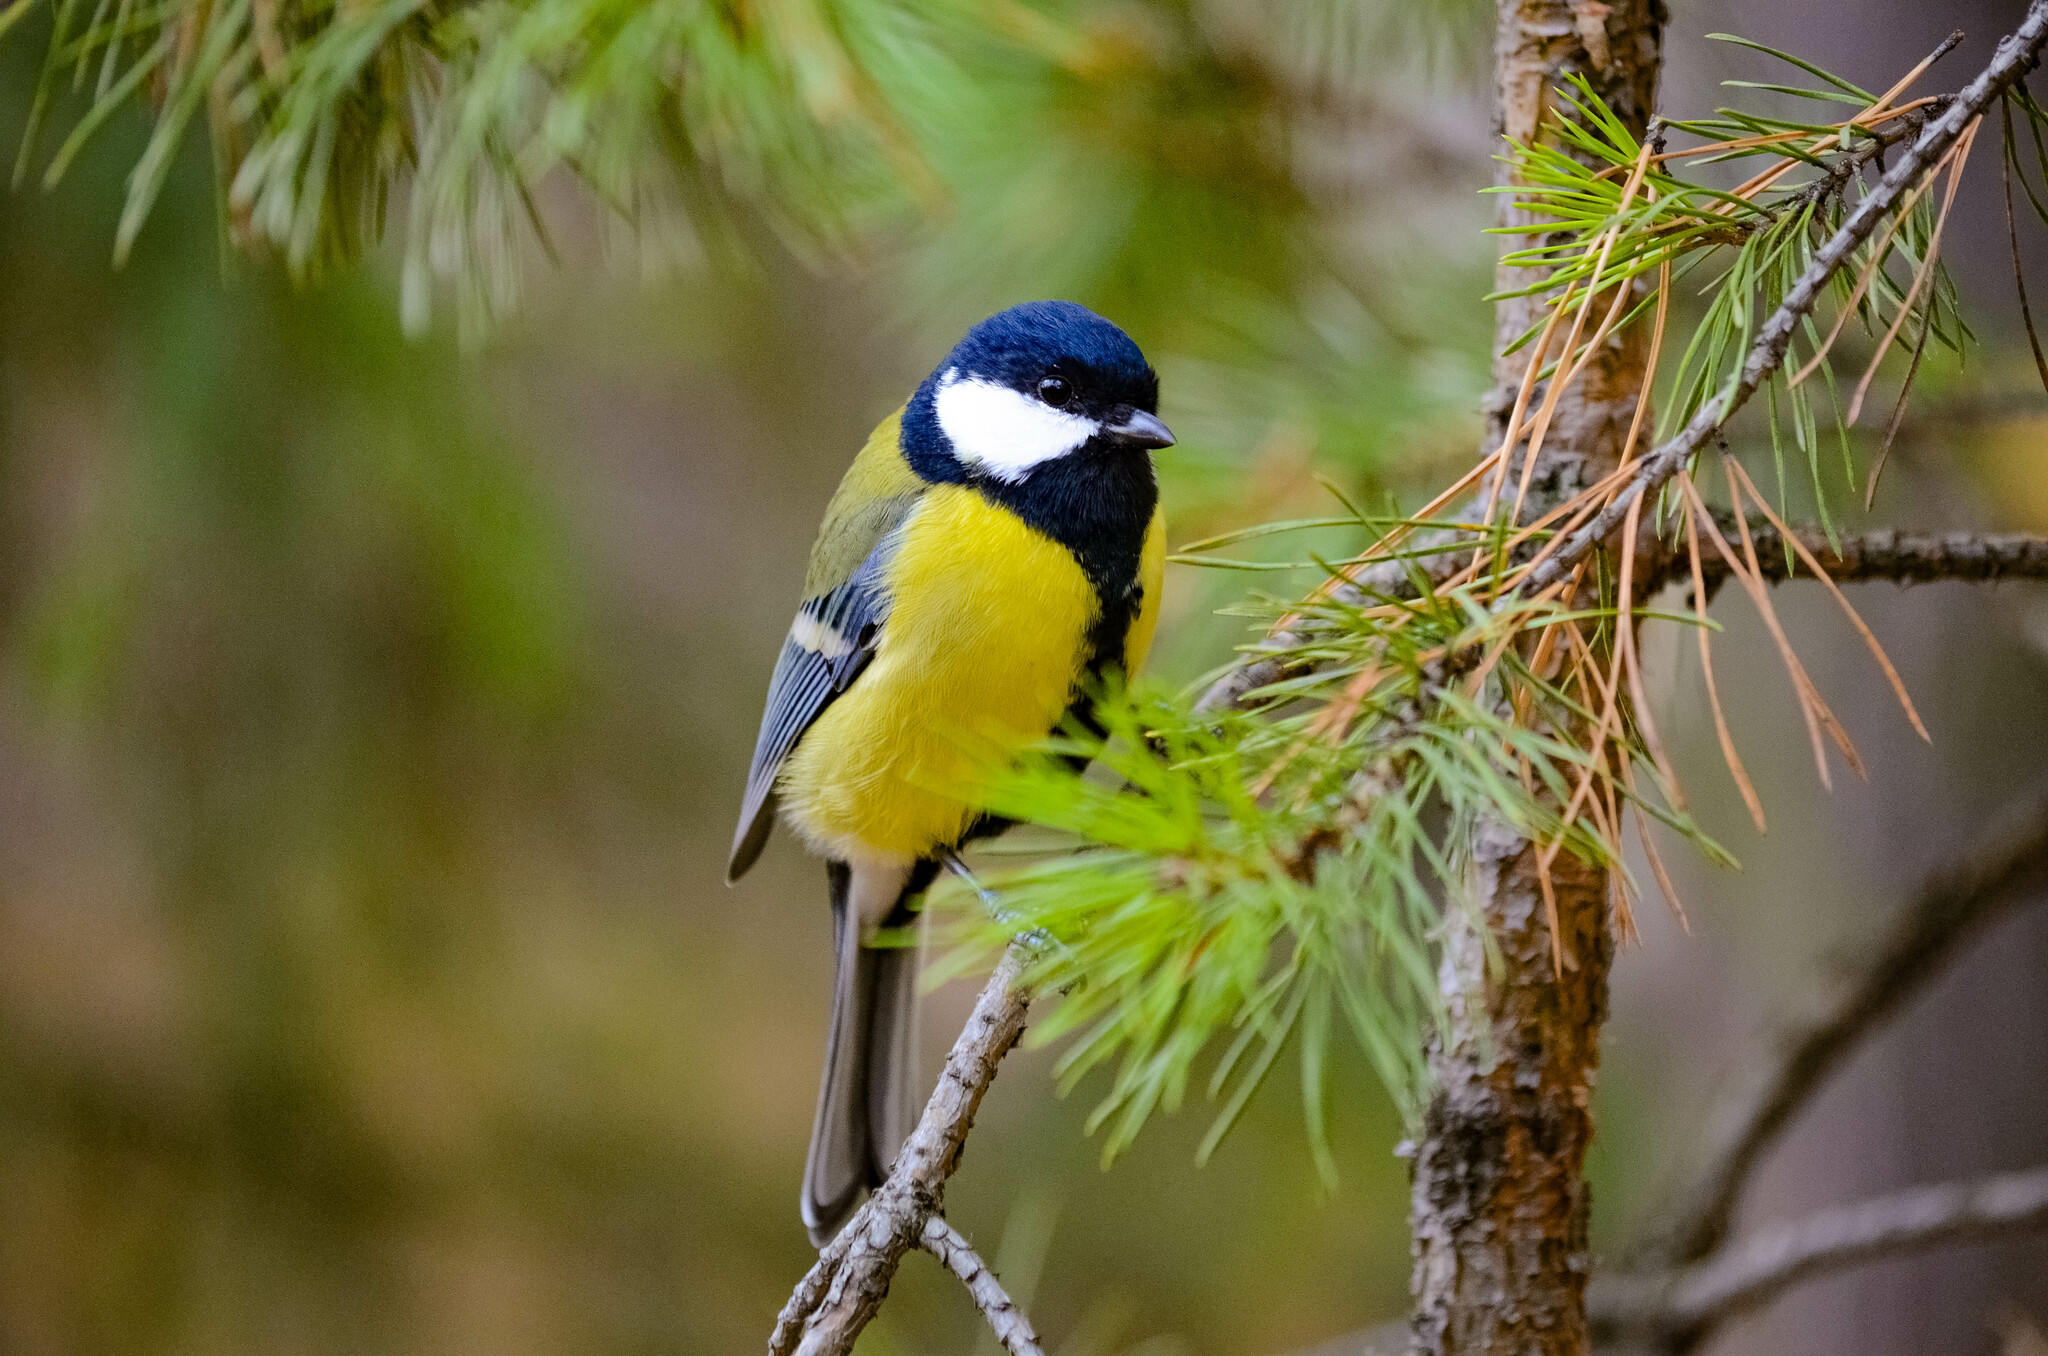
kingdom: Animalia
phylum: Chordata
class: Aves
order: Passeriformes
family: Paridae
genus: Parus
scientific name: Parus major
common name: Great tit
